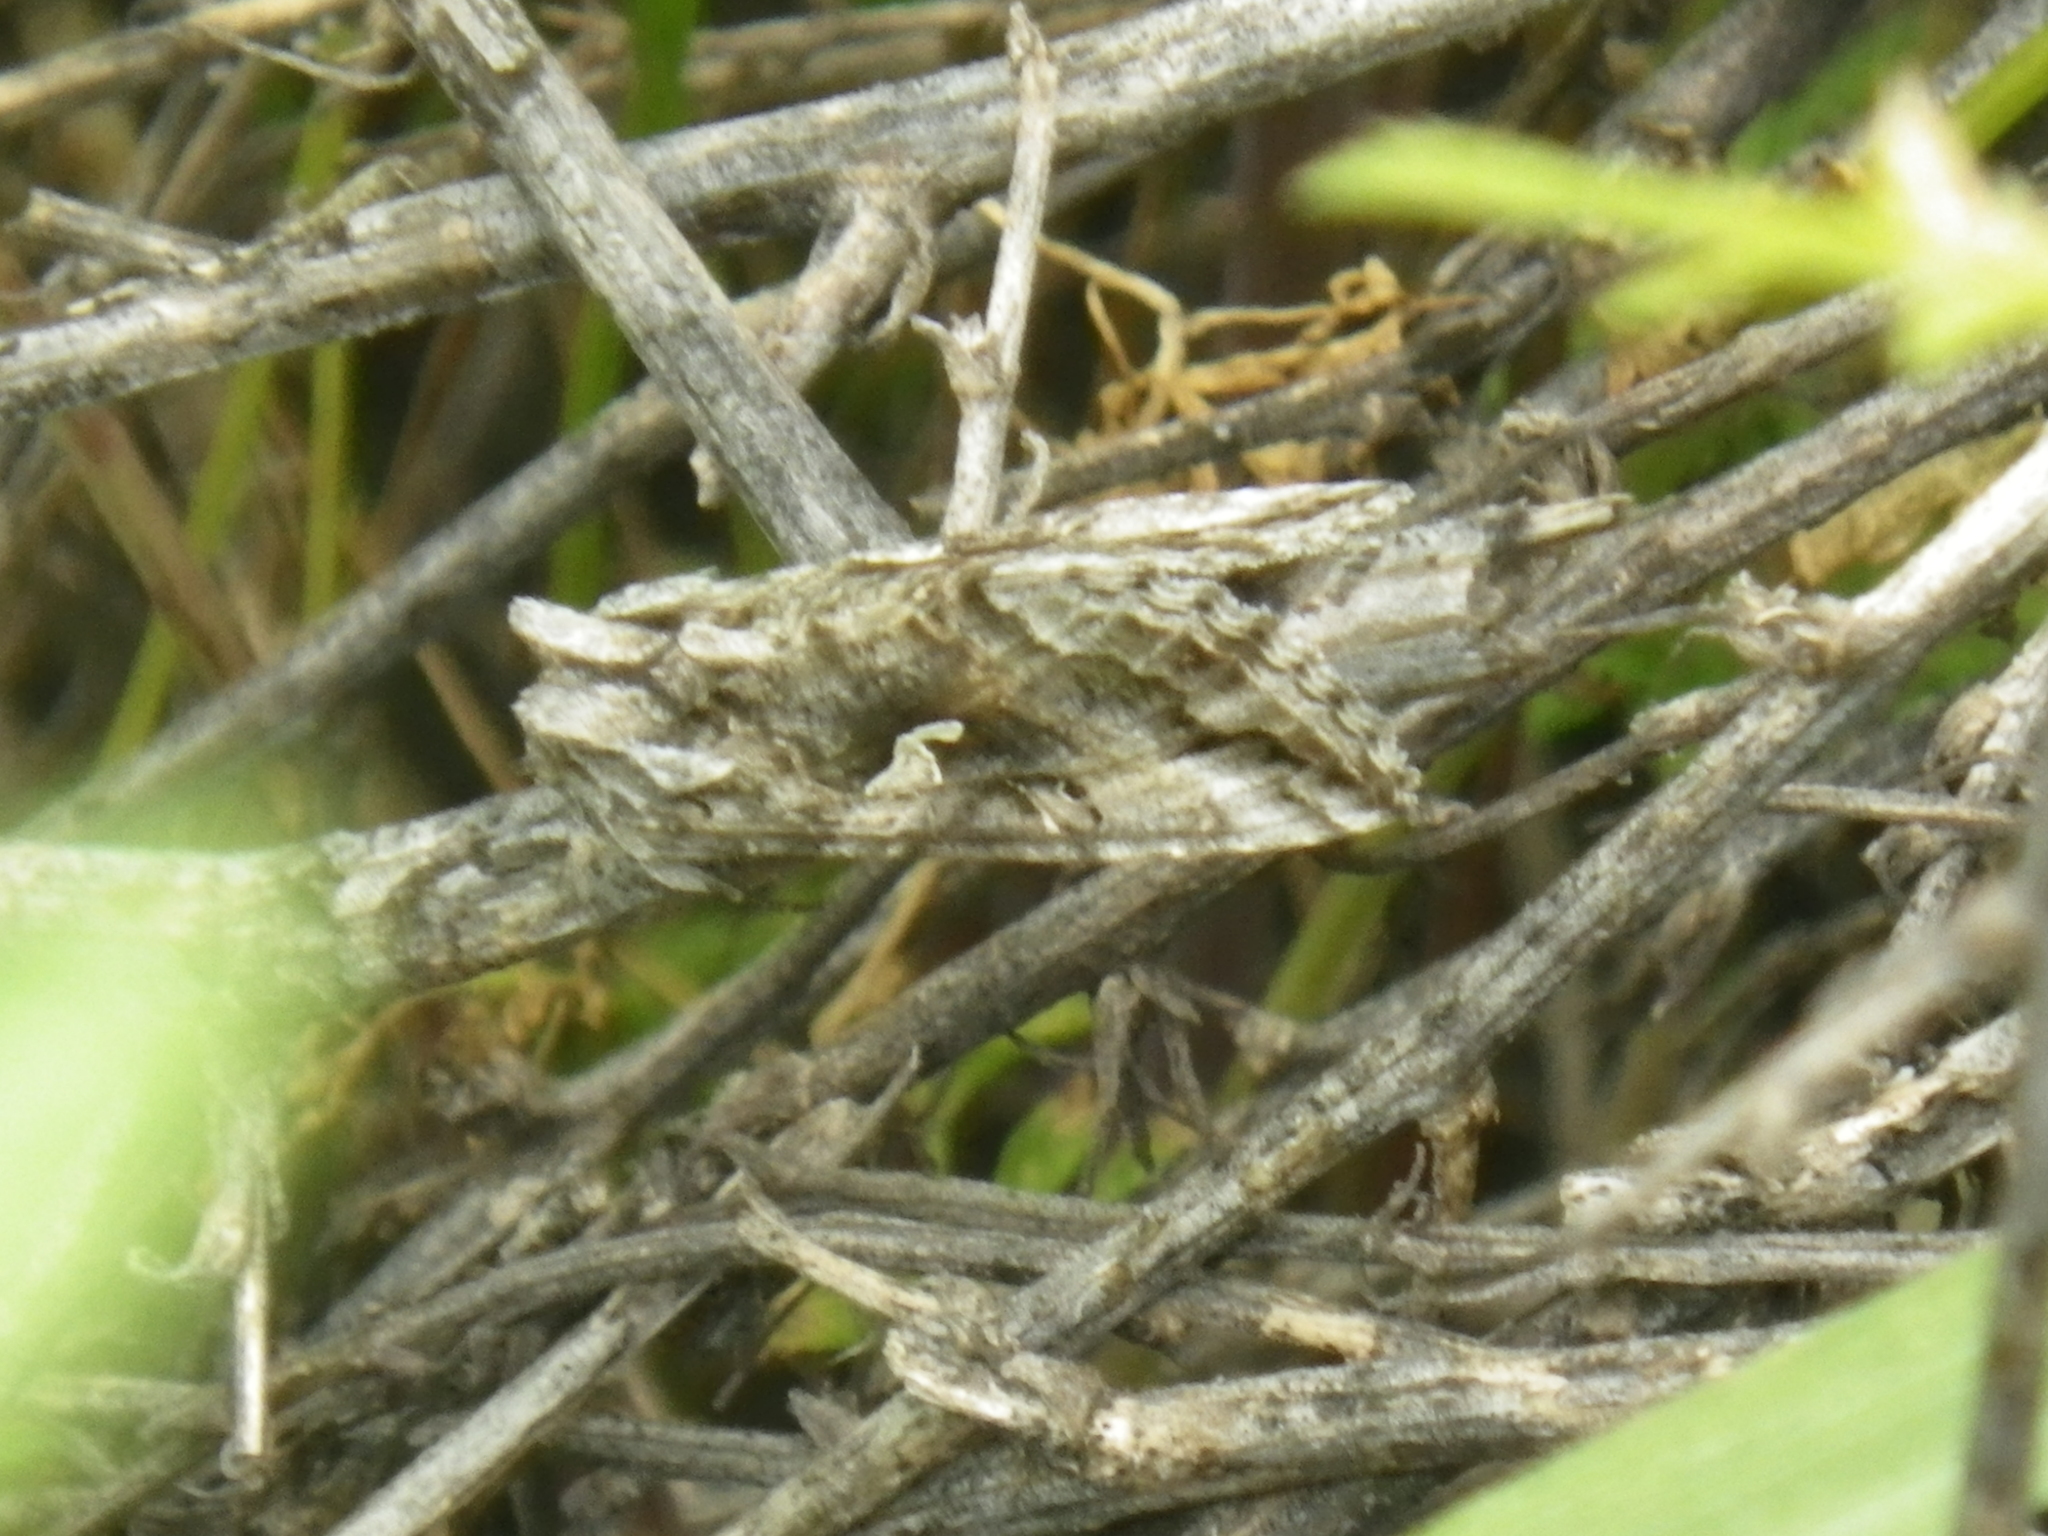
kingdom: Animalia
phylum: Arthropoda
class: Insecta
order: Lepidoptera
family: Noctuidae
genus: Autographa
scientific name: Autographa californica
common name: Alfalfa looper
